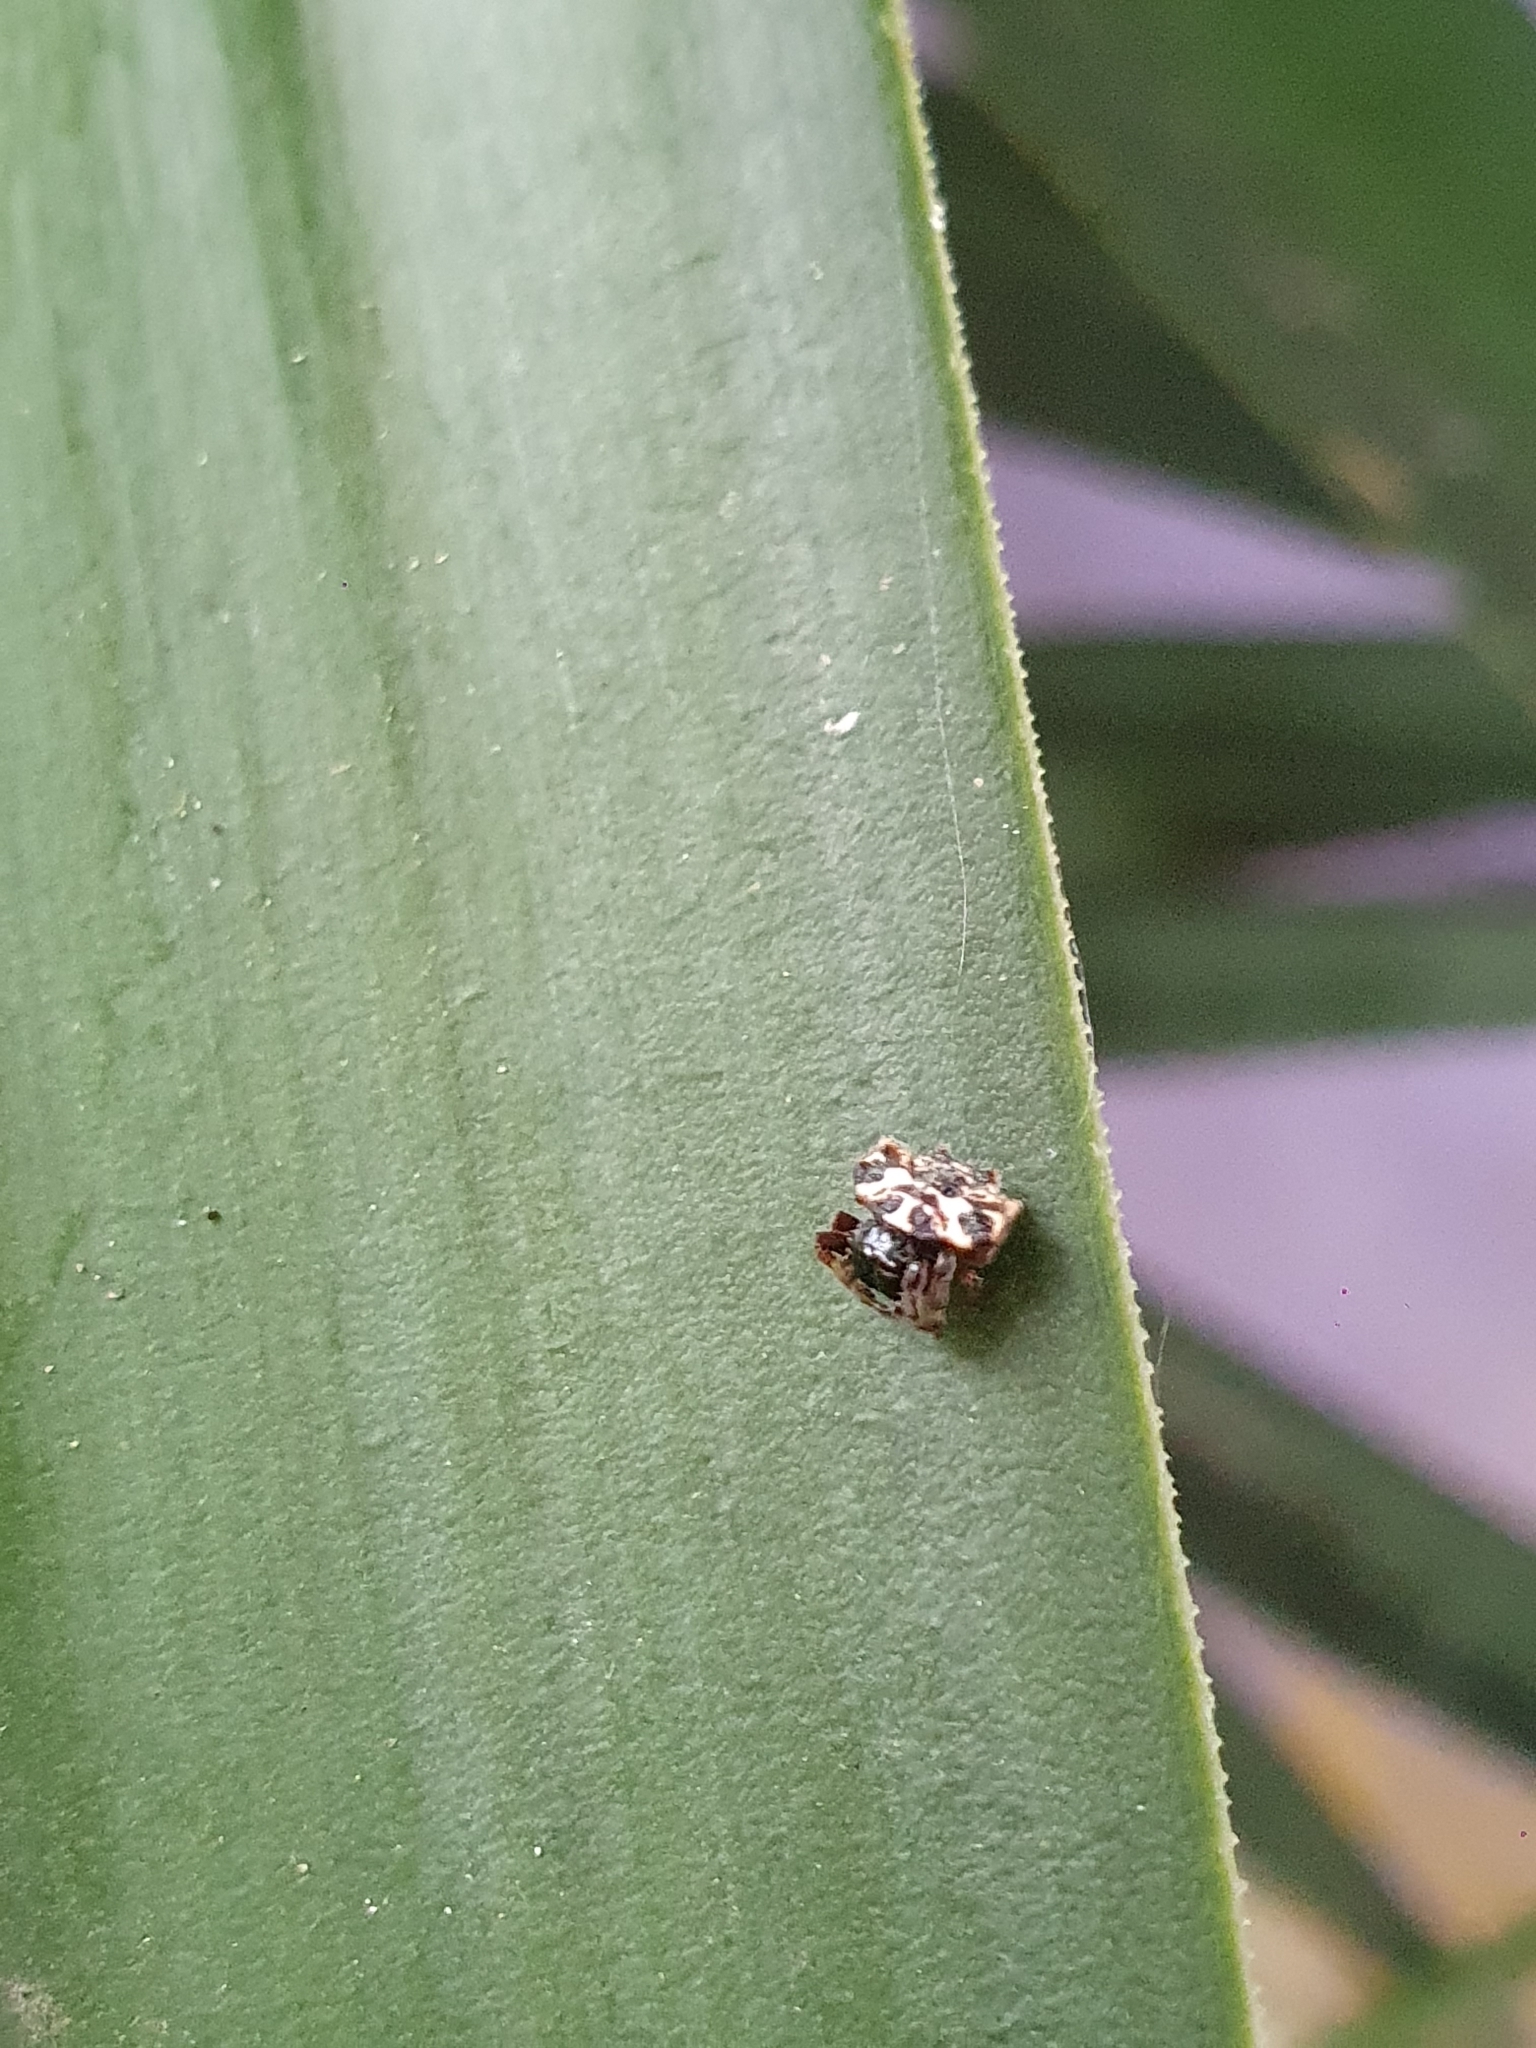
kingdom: Animalia
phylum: Arthropoda
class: Arachnida
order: Araneae
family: Araneidae
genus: Gasteracantha
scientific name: Gasteracantha cancriformis
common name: Orb weavers
